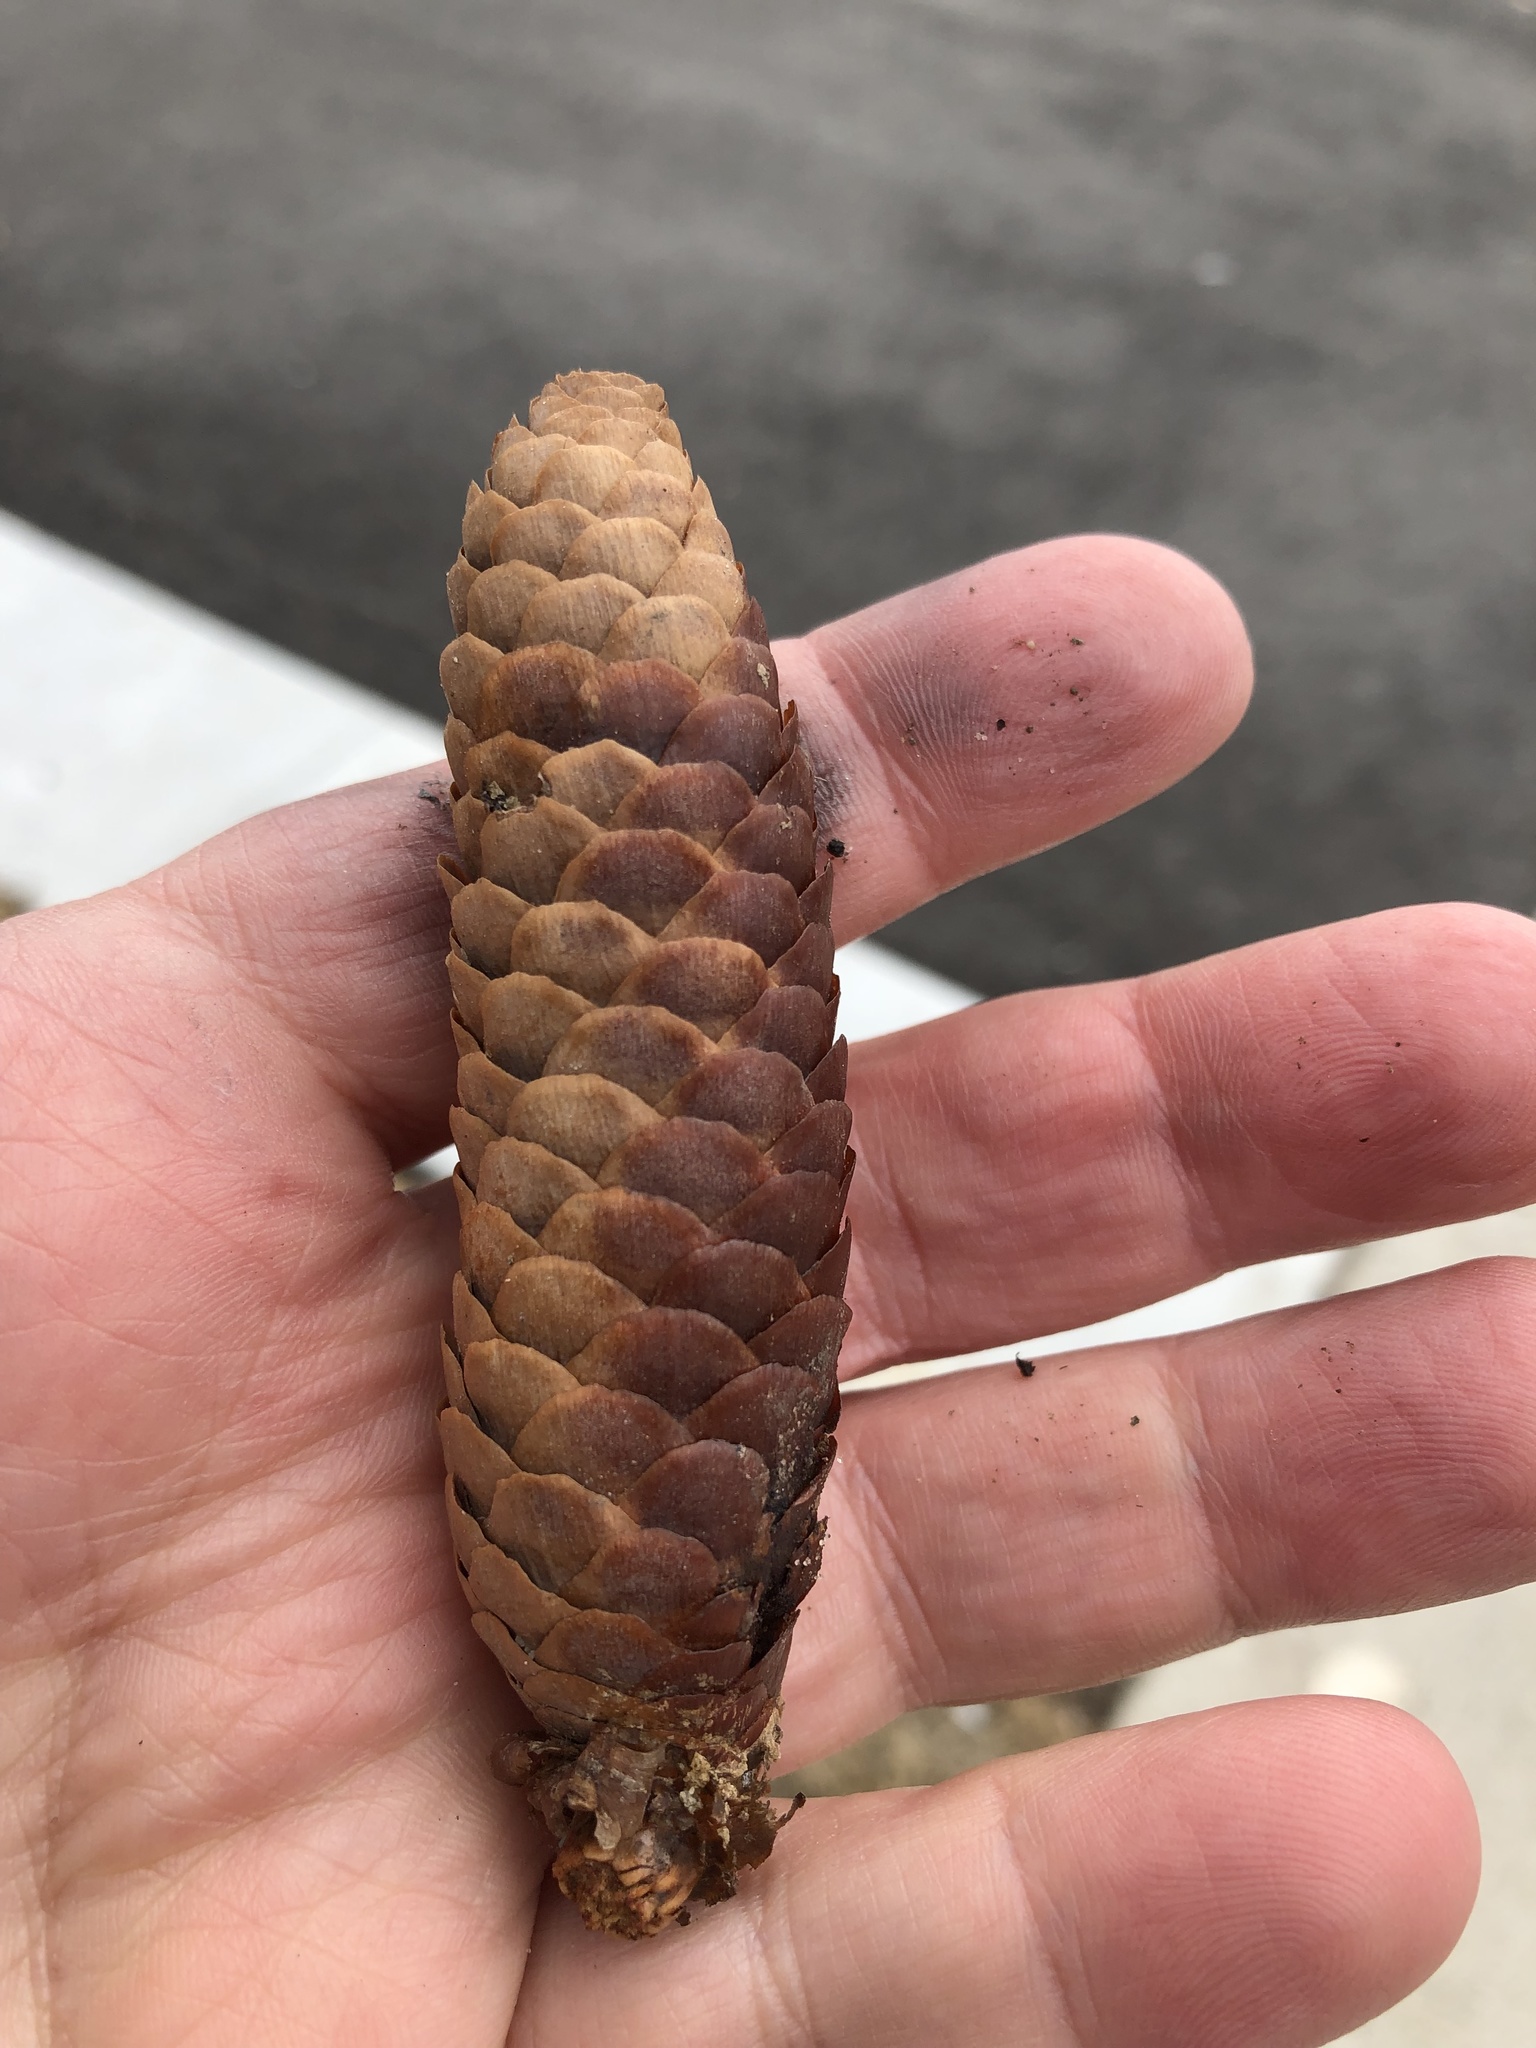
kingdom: Plantae
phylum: Tracheophyta
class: Pinopsida
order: Pinales
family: Pinaceae
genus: Picea
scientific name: Picea abies
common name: Norway spruce
